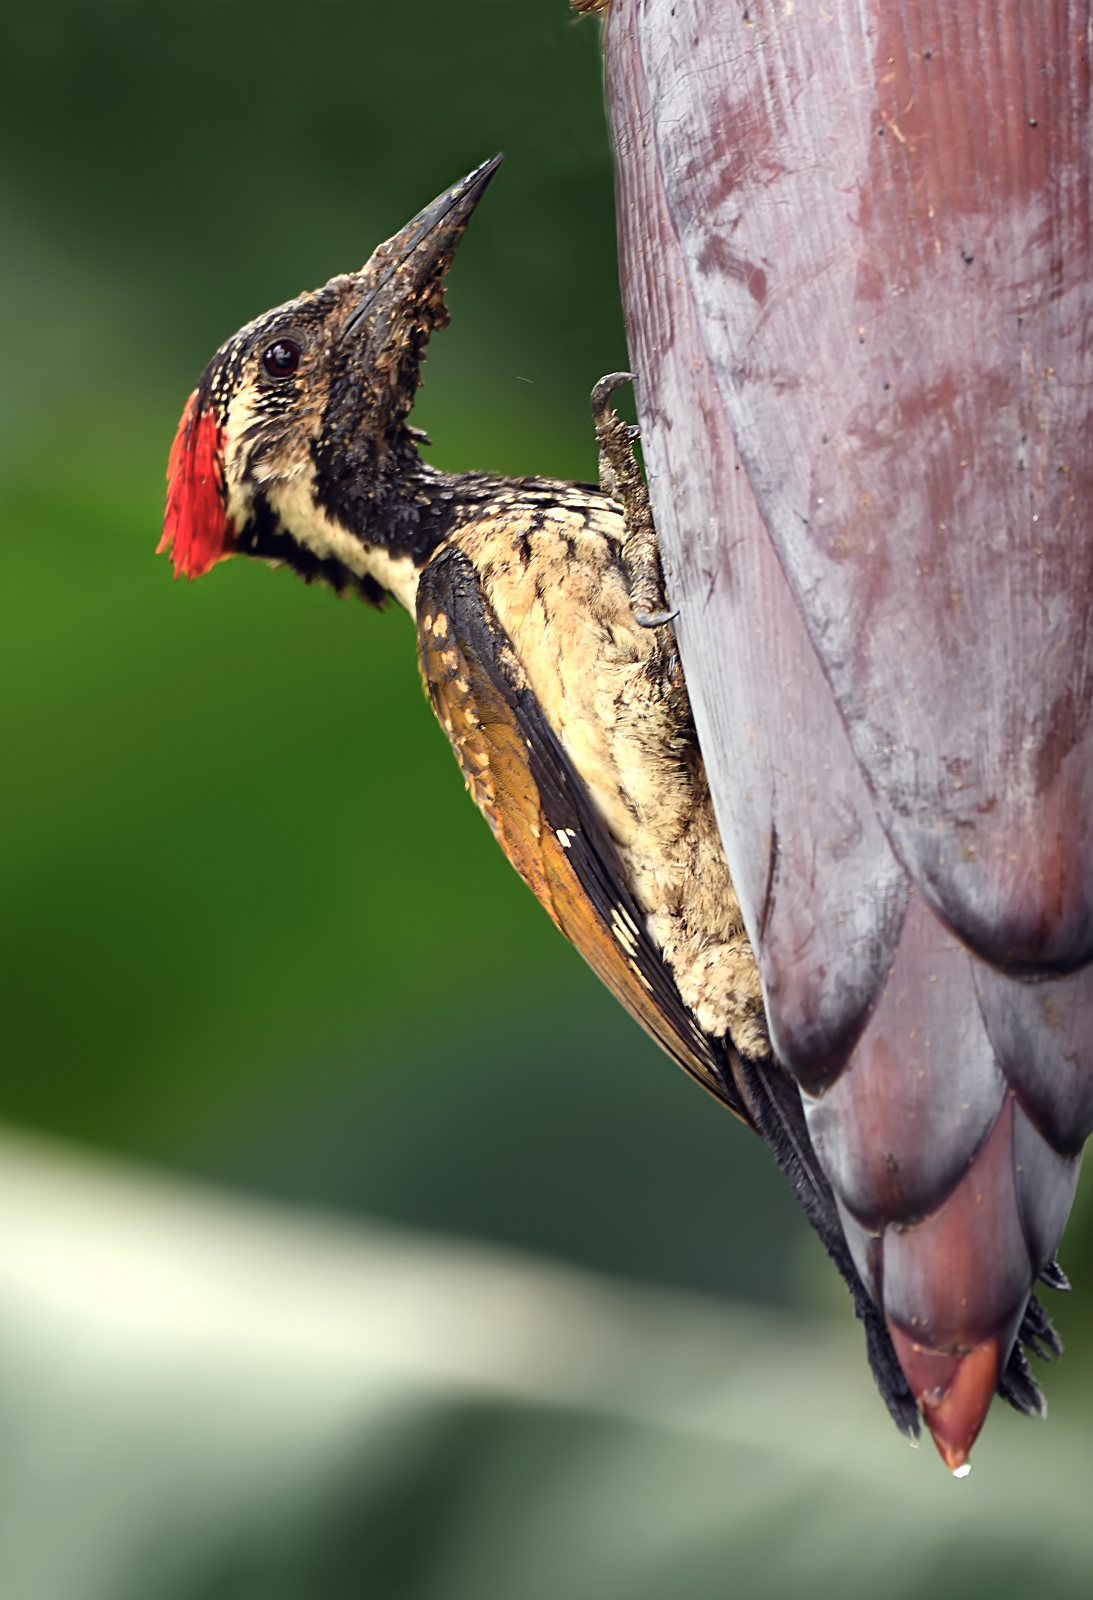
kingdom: Animalia
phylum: Chordata
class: Aves
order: Piciformes
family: Picidae
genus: Dinopium
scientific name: Dinopium benghalense
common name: Black-rumped flameback
